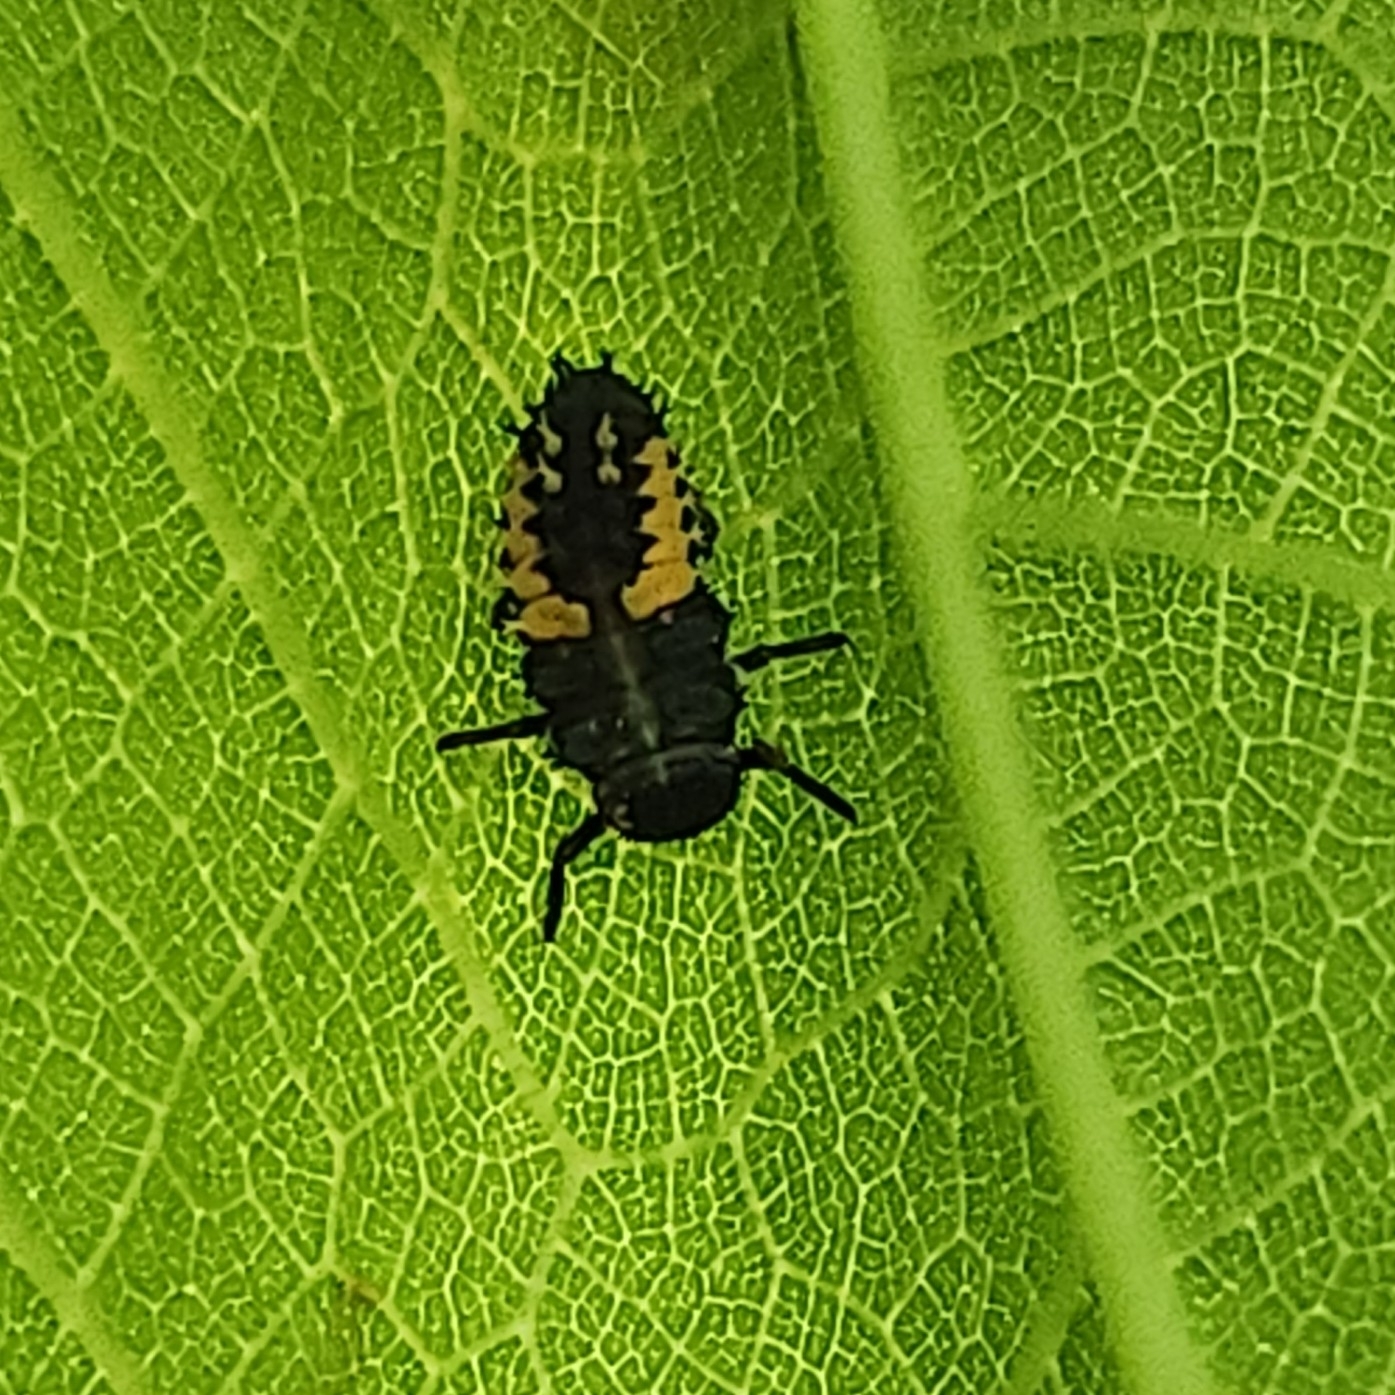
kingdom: Animalia
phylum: Arthropoda
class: Insecta
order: Coleoptera
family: Coccinellidae
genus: Harmonia
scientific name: Harmonia axyridis
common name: Harlequin ladybird
